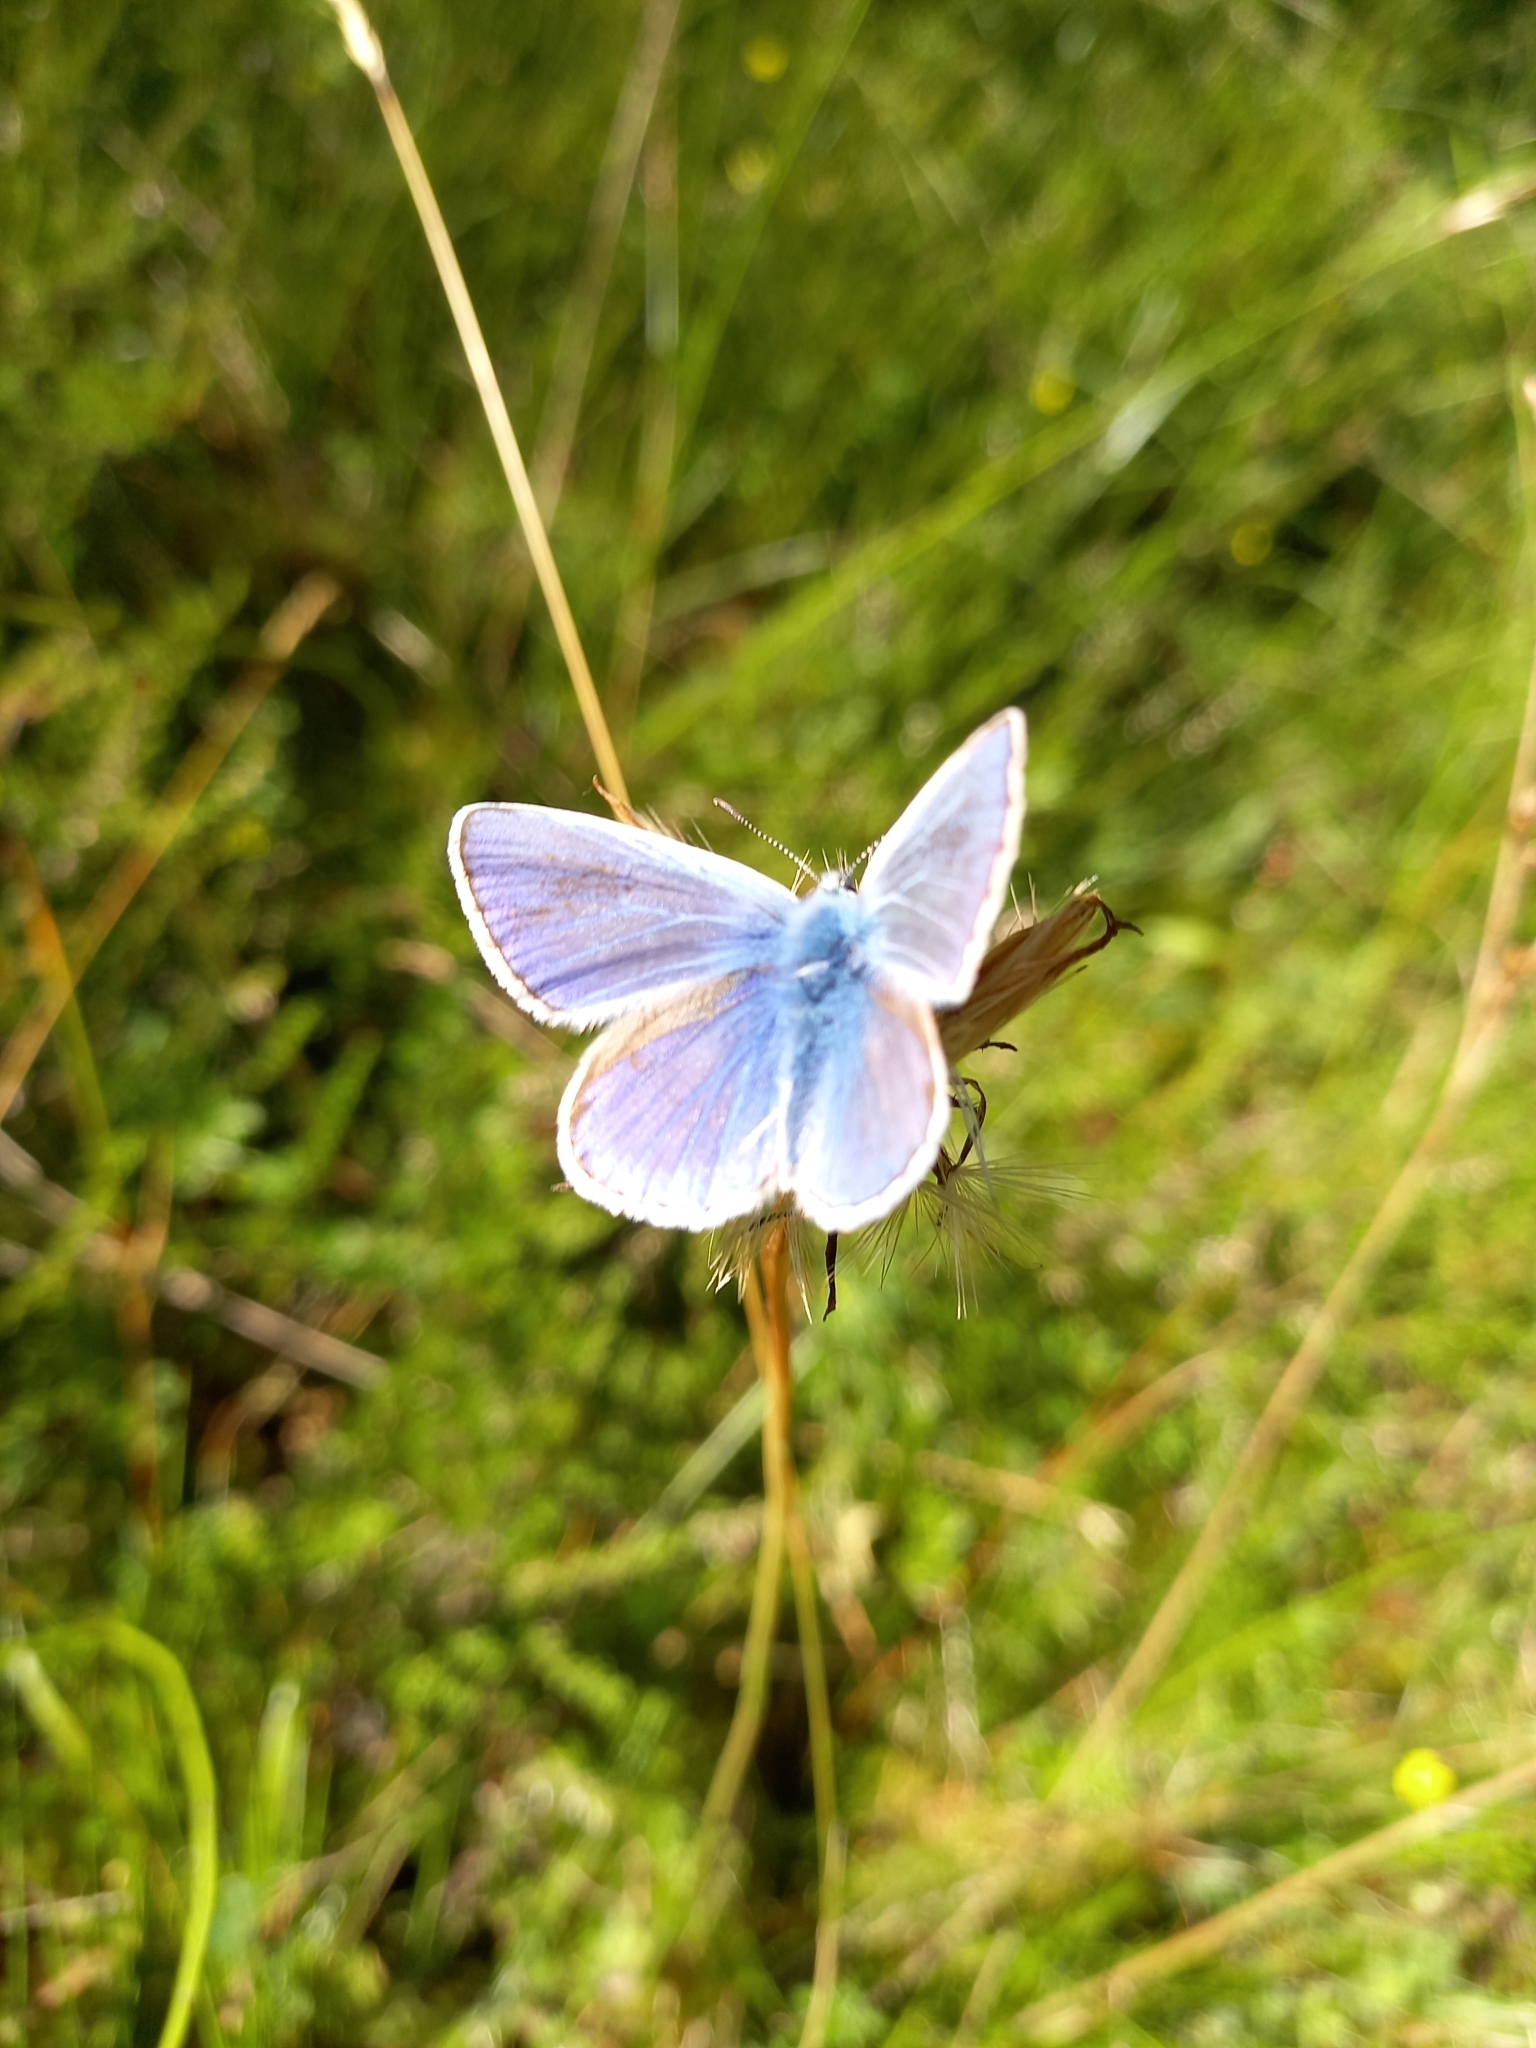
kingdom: Animalia
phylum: Arthropoda
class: Insecta
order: Lepidoptera
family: Lycaenidae
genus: Polyommatus
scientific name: Polyommatus icarus
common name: Common blue
